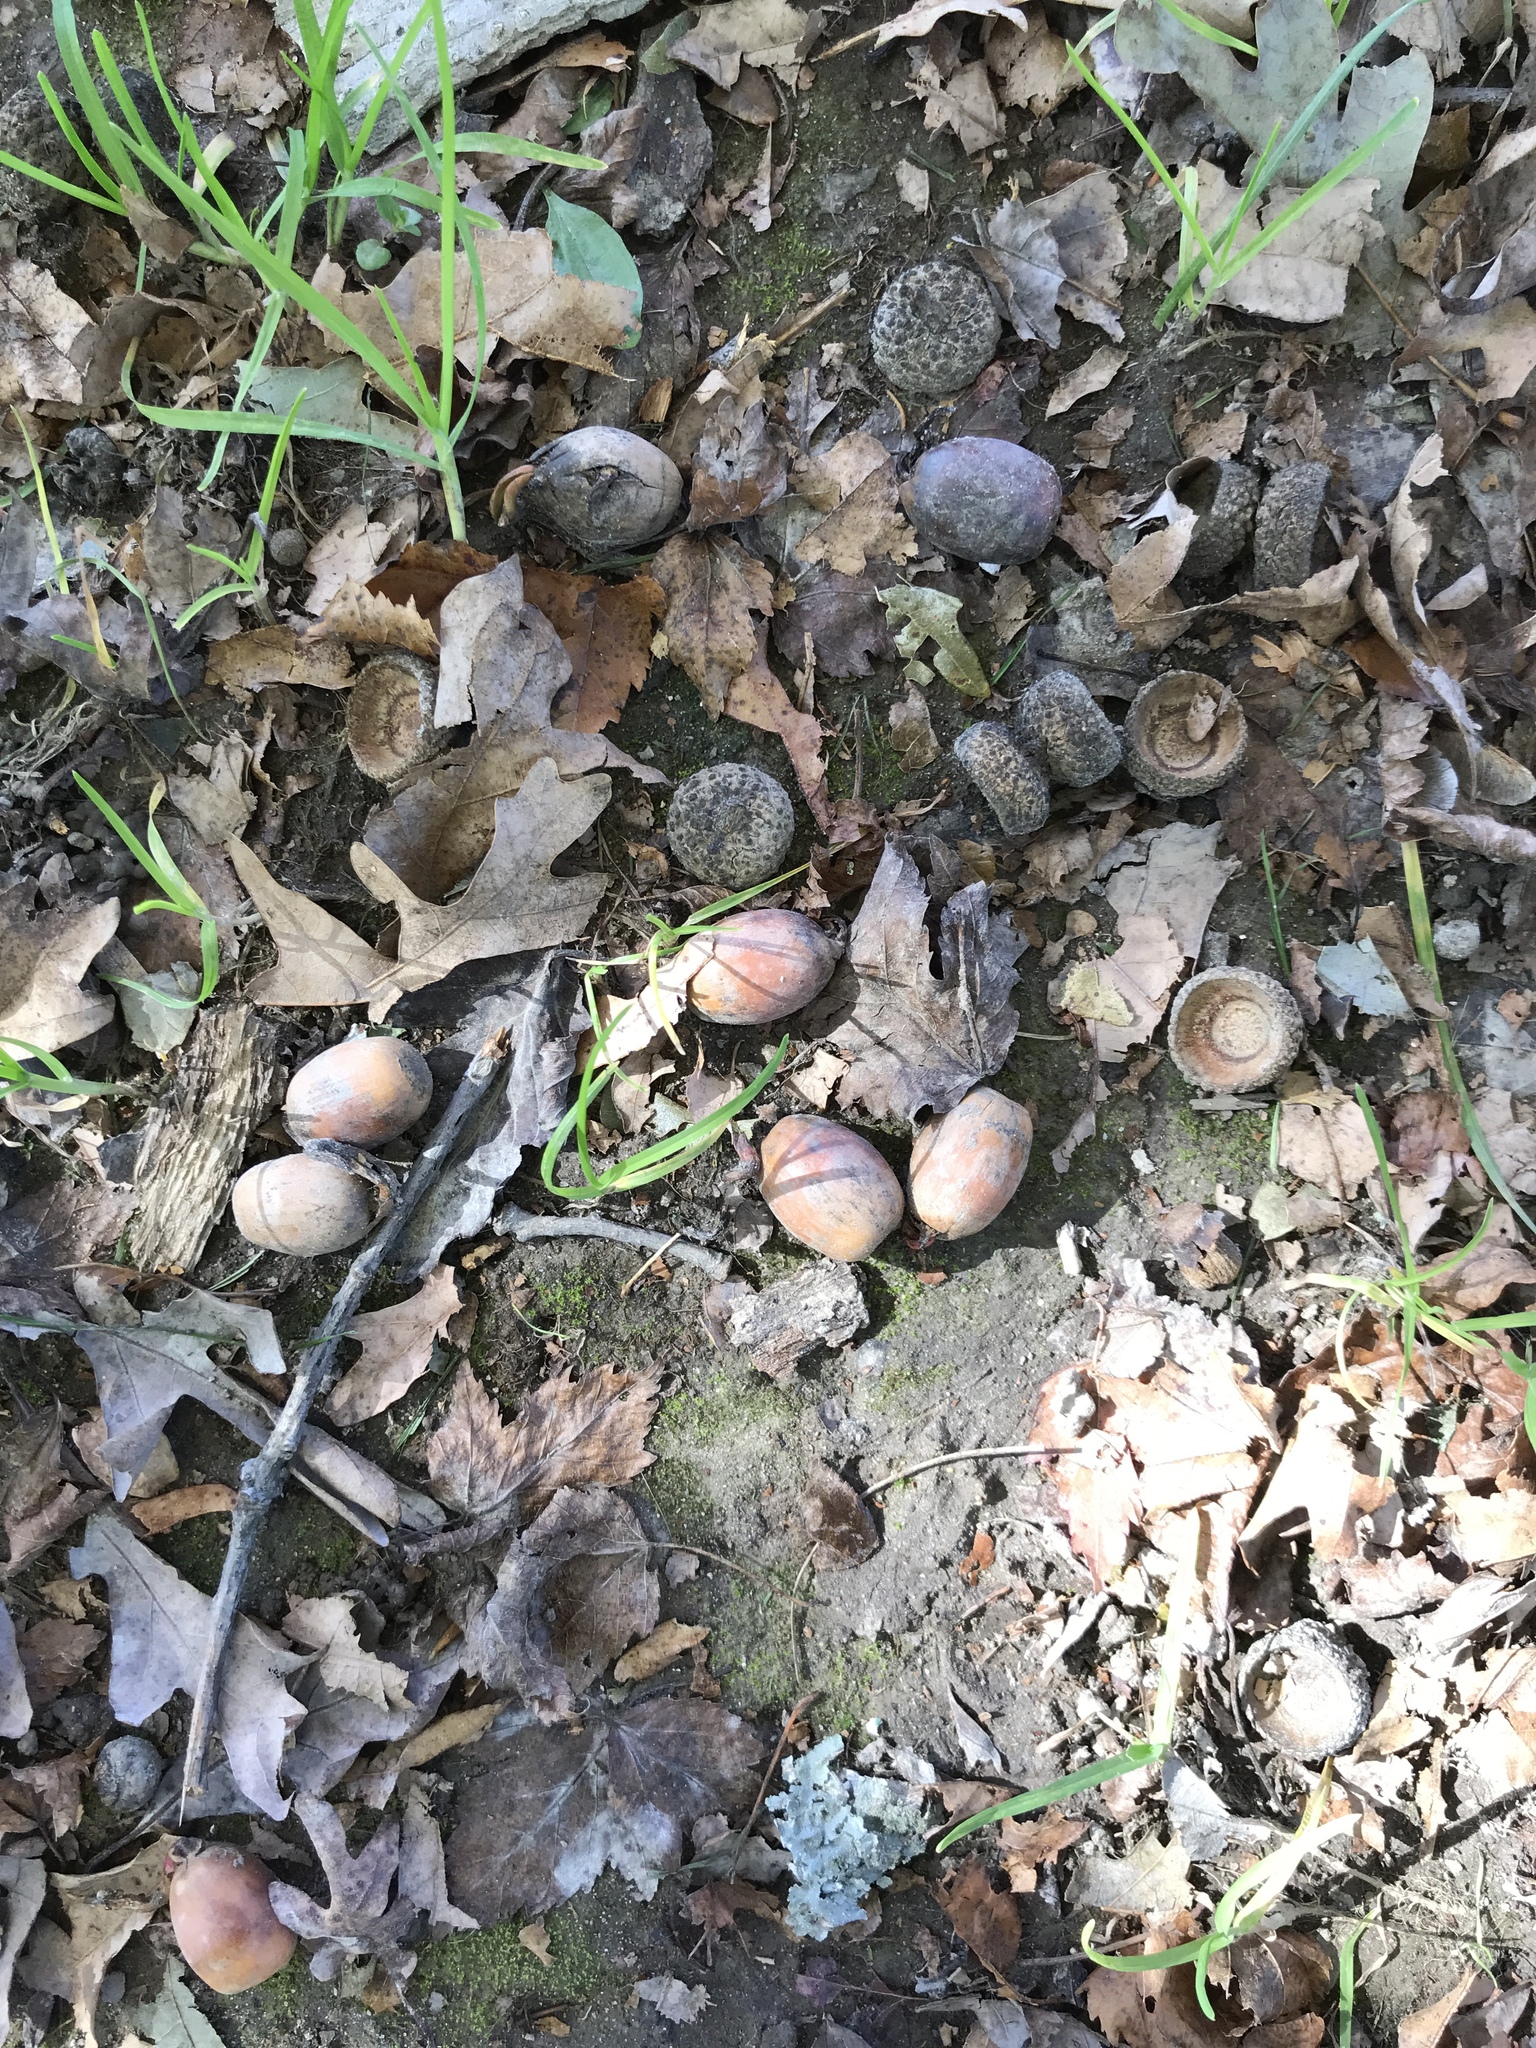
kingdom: Plantae
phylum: Tracheophyta
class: Magnoliopsida
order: Fagales
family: Fagaceae
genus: Quercus
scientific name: Quercus alba
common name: White oak
